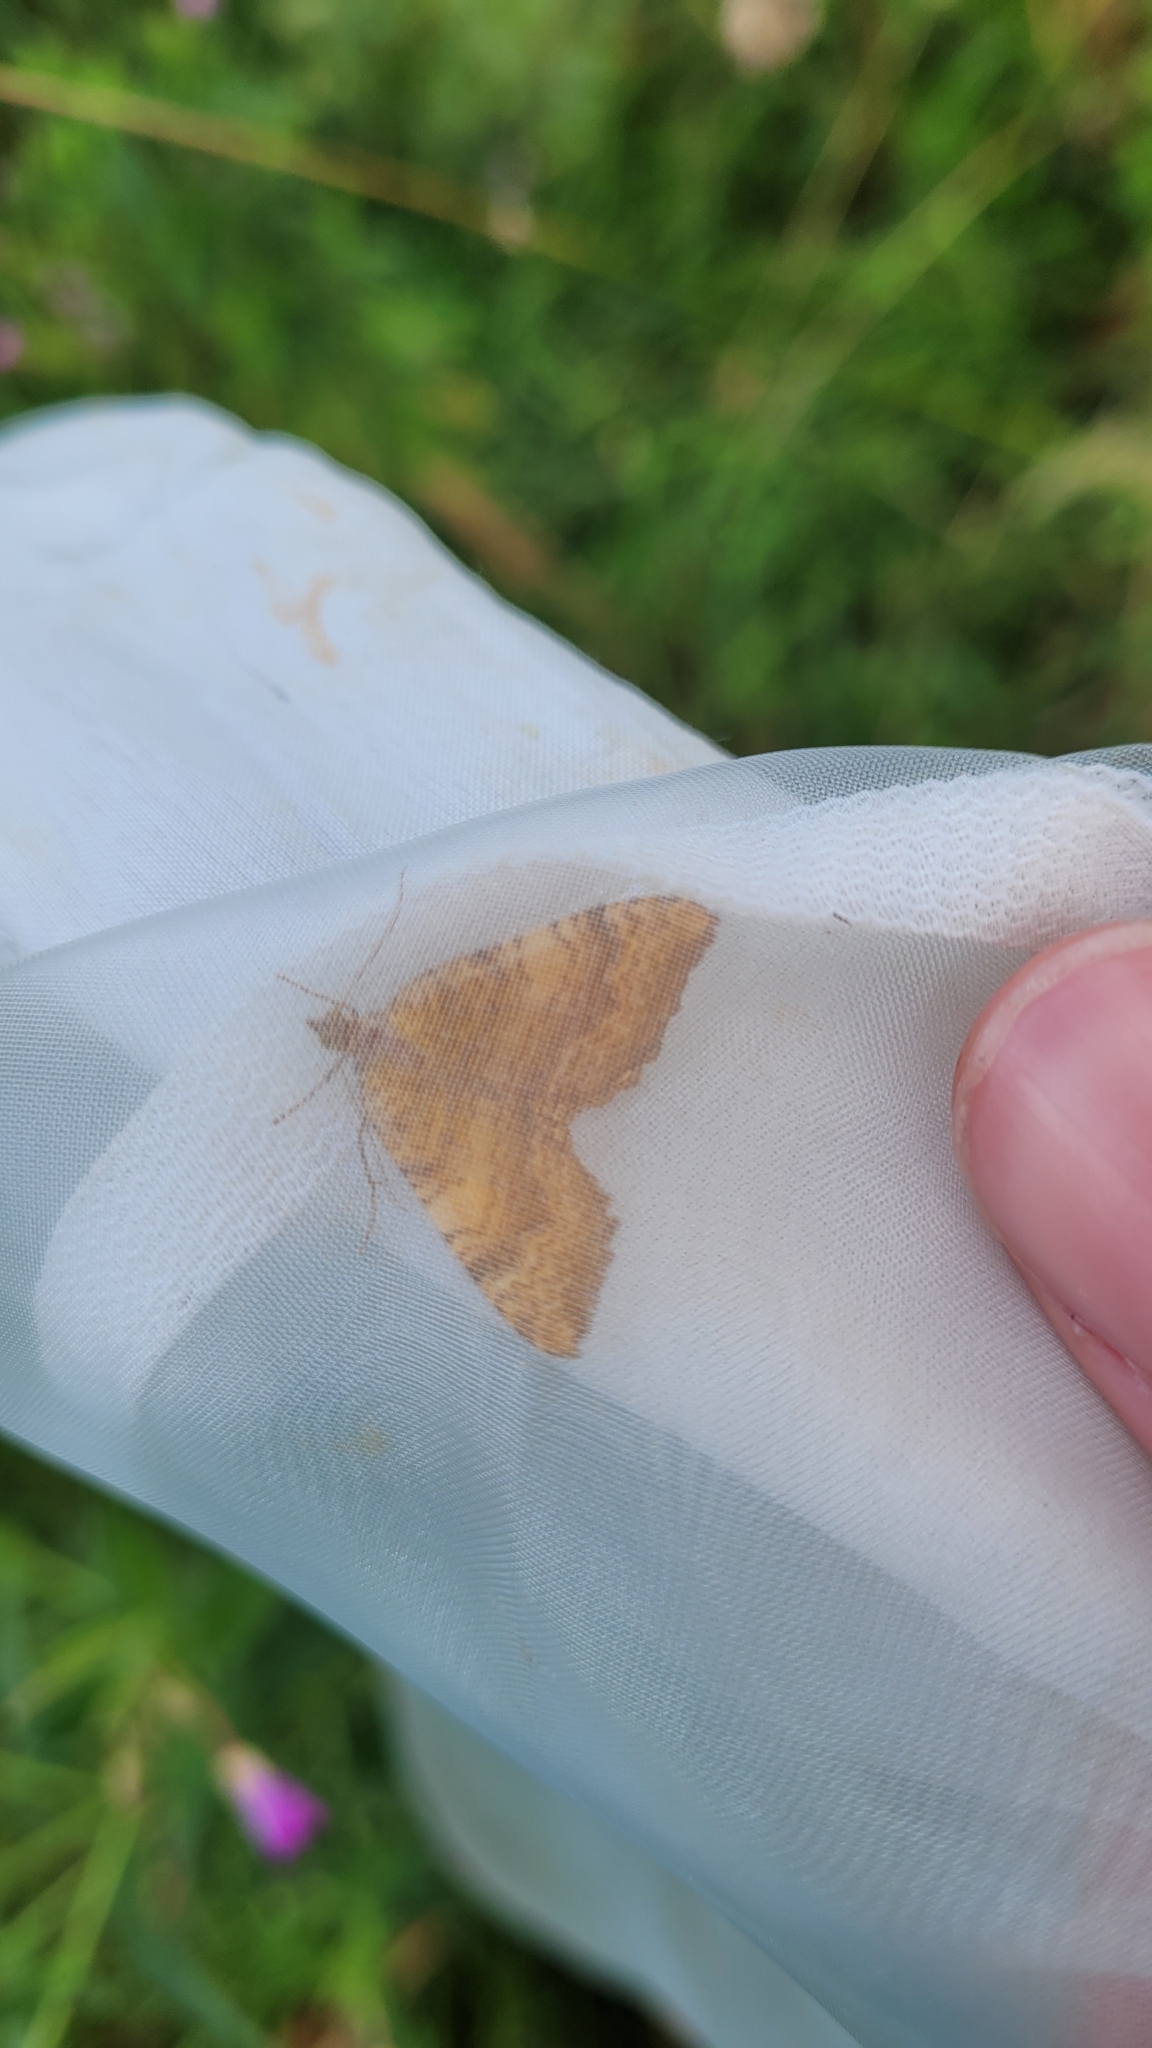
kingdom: Animalia
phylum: Arthropoda
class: Insecta
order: Lepidoptera
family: Geometridae
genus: Camptogramma
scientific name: Camptogramma bilineata
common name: Yellow shell
